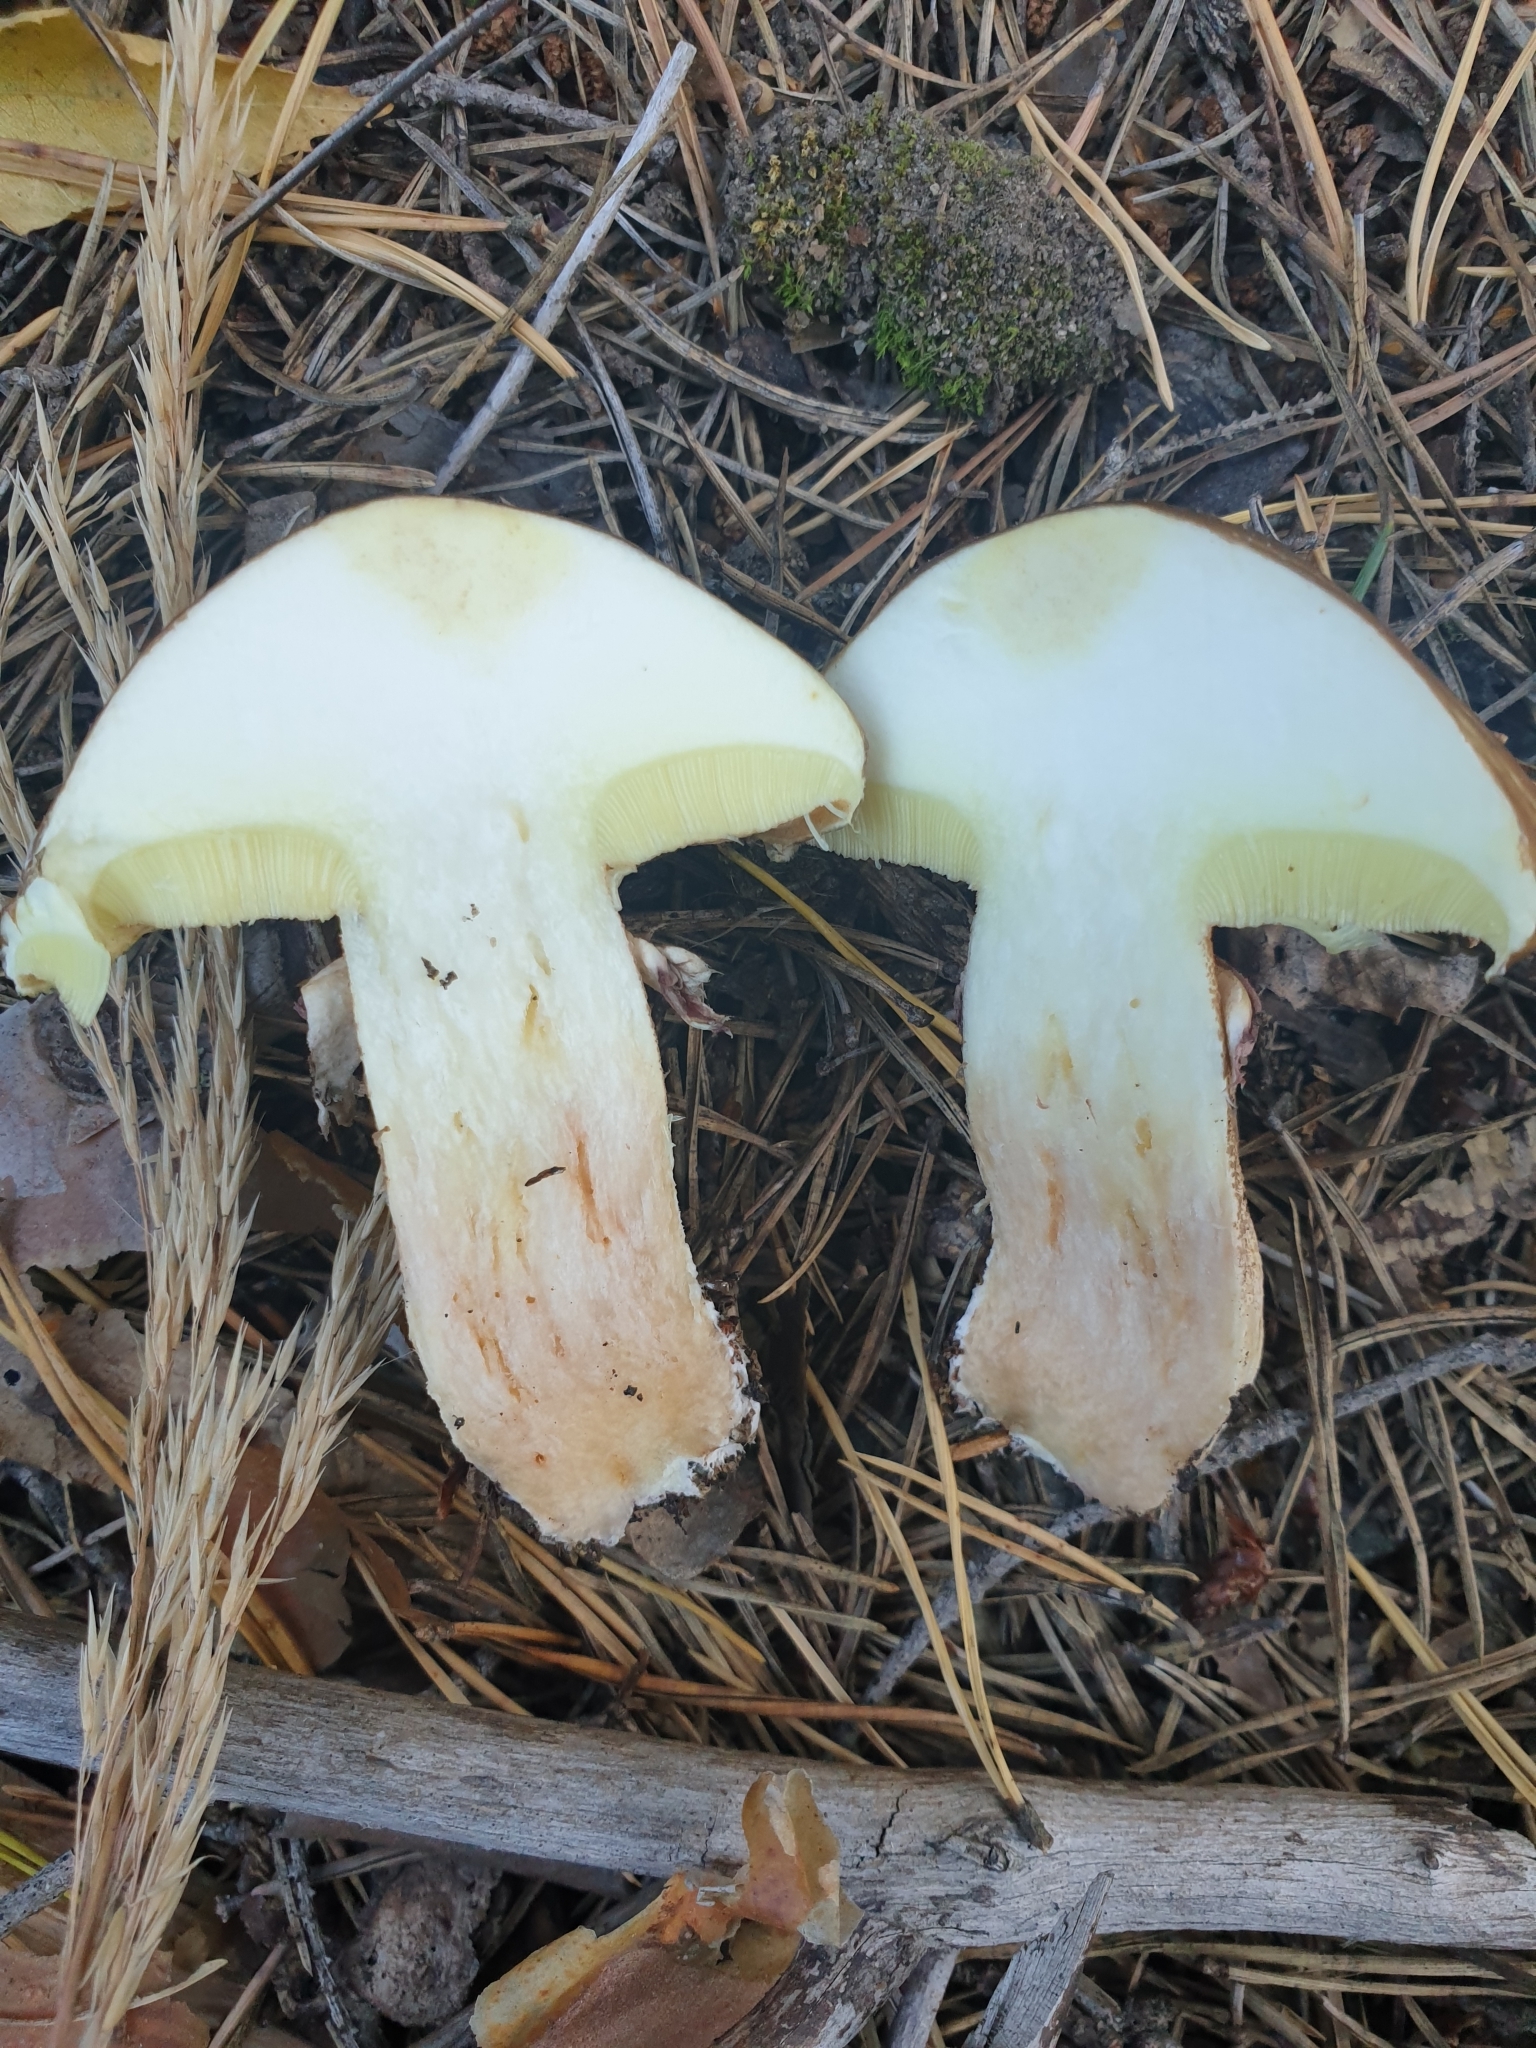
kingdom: Fungi
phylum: Basidiomycota
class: Agaricomycetes
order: Boletales
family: Suillaceae
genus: Suillus
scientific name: Suillus luteus
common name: Slippery jack
